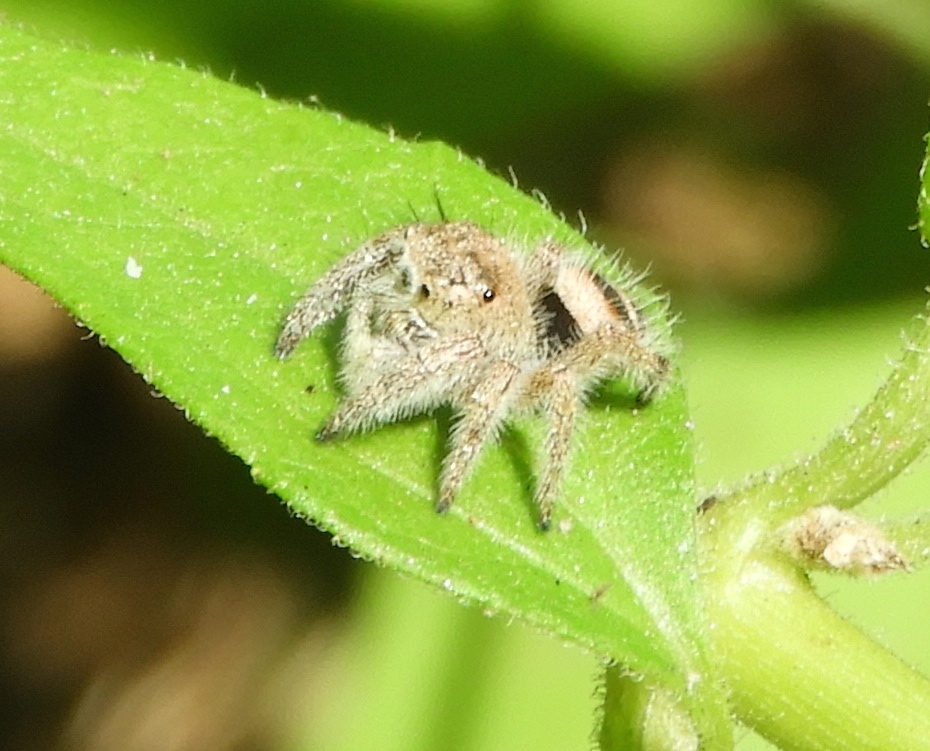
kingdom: Animalia
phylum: Arthropoda
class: Arachnida
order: Araneae
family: Salticidae
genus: Phidippus
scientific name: Phidippus pacosauritus
